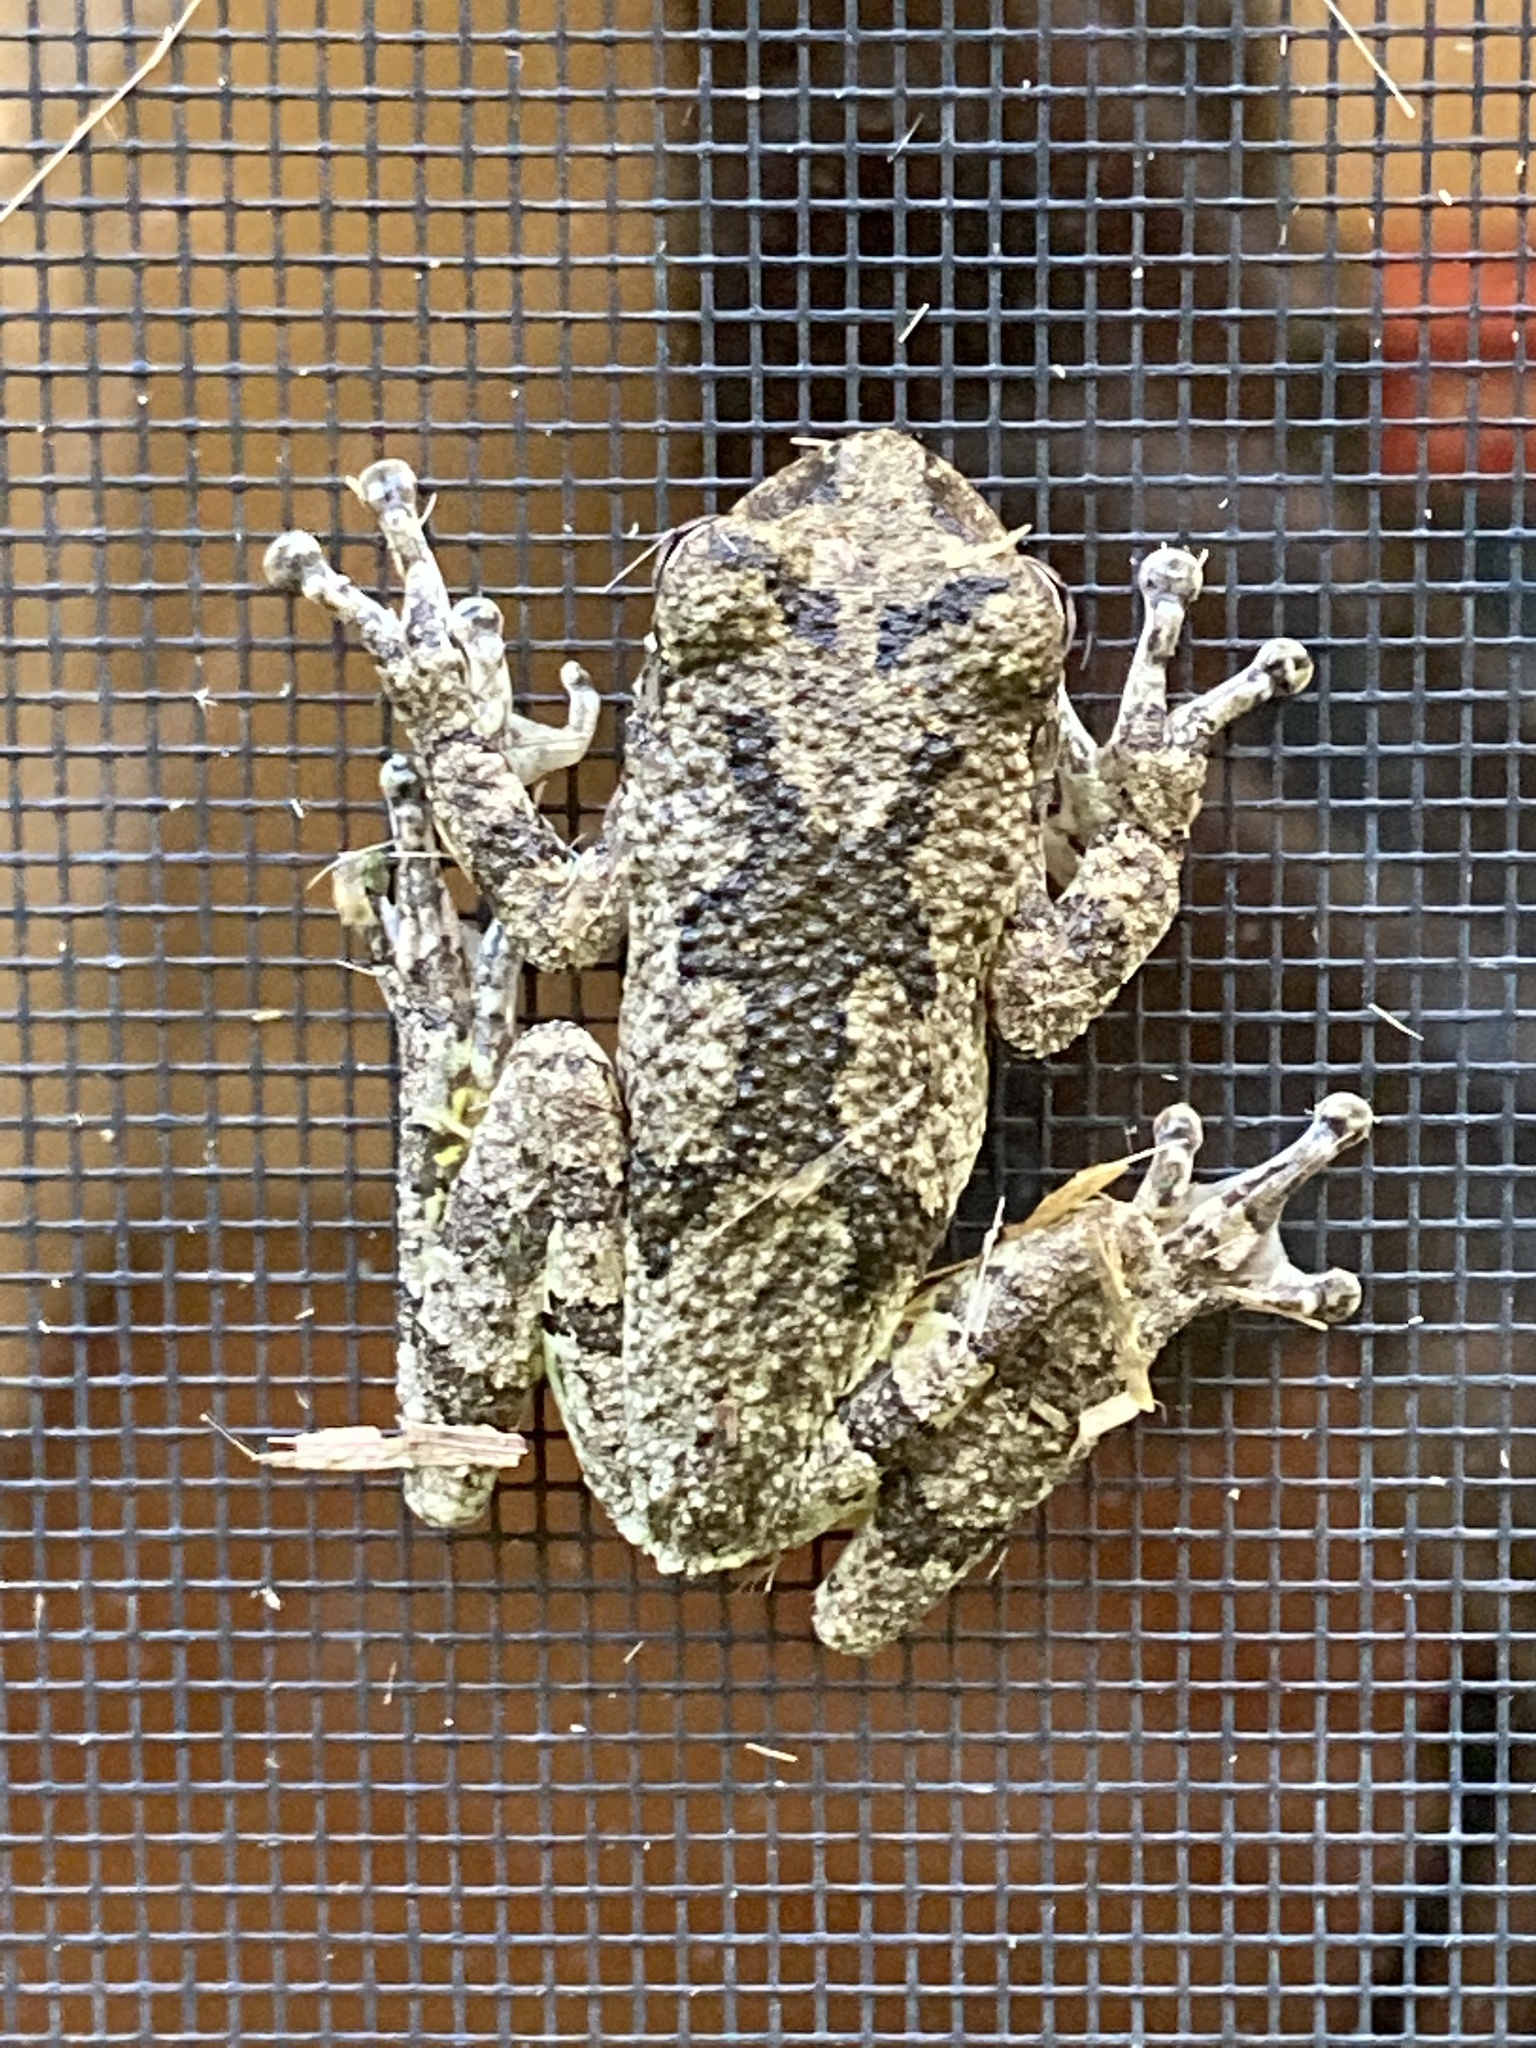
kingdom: Animalia
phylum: Chordata
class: Amphibia
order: Anura
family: Hylidae
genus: Dryophytes
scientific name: Dryophytes chrysoscelis
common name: Cope's gray treefrog
